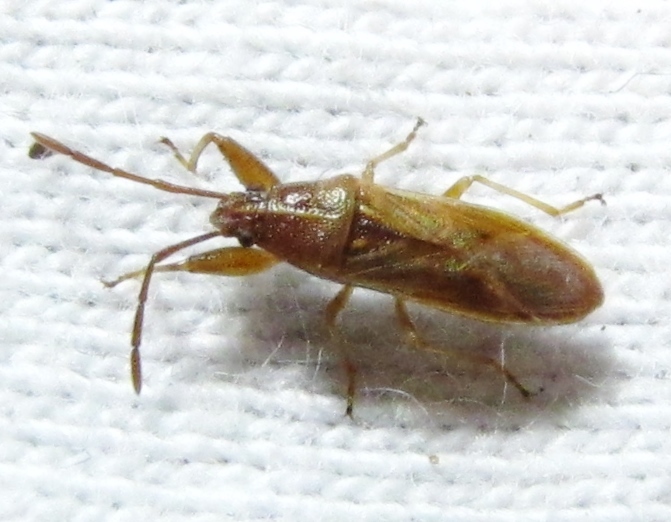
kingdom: Animalia
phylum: Arthropoda
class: Insecta
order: Hemiptera
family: Pachygronthidae
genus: Oedancala
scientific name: Oedancala crassimana
